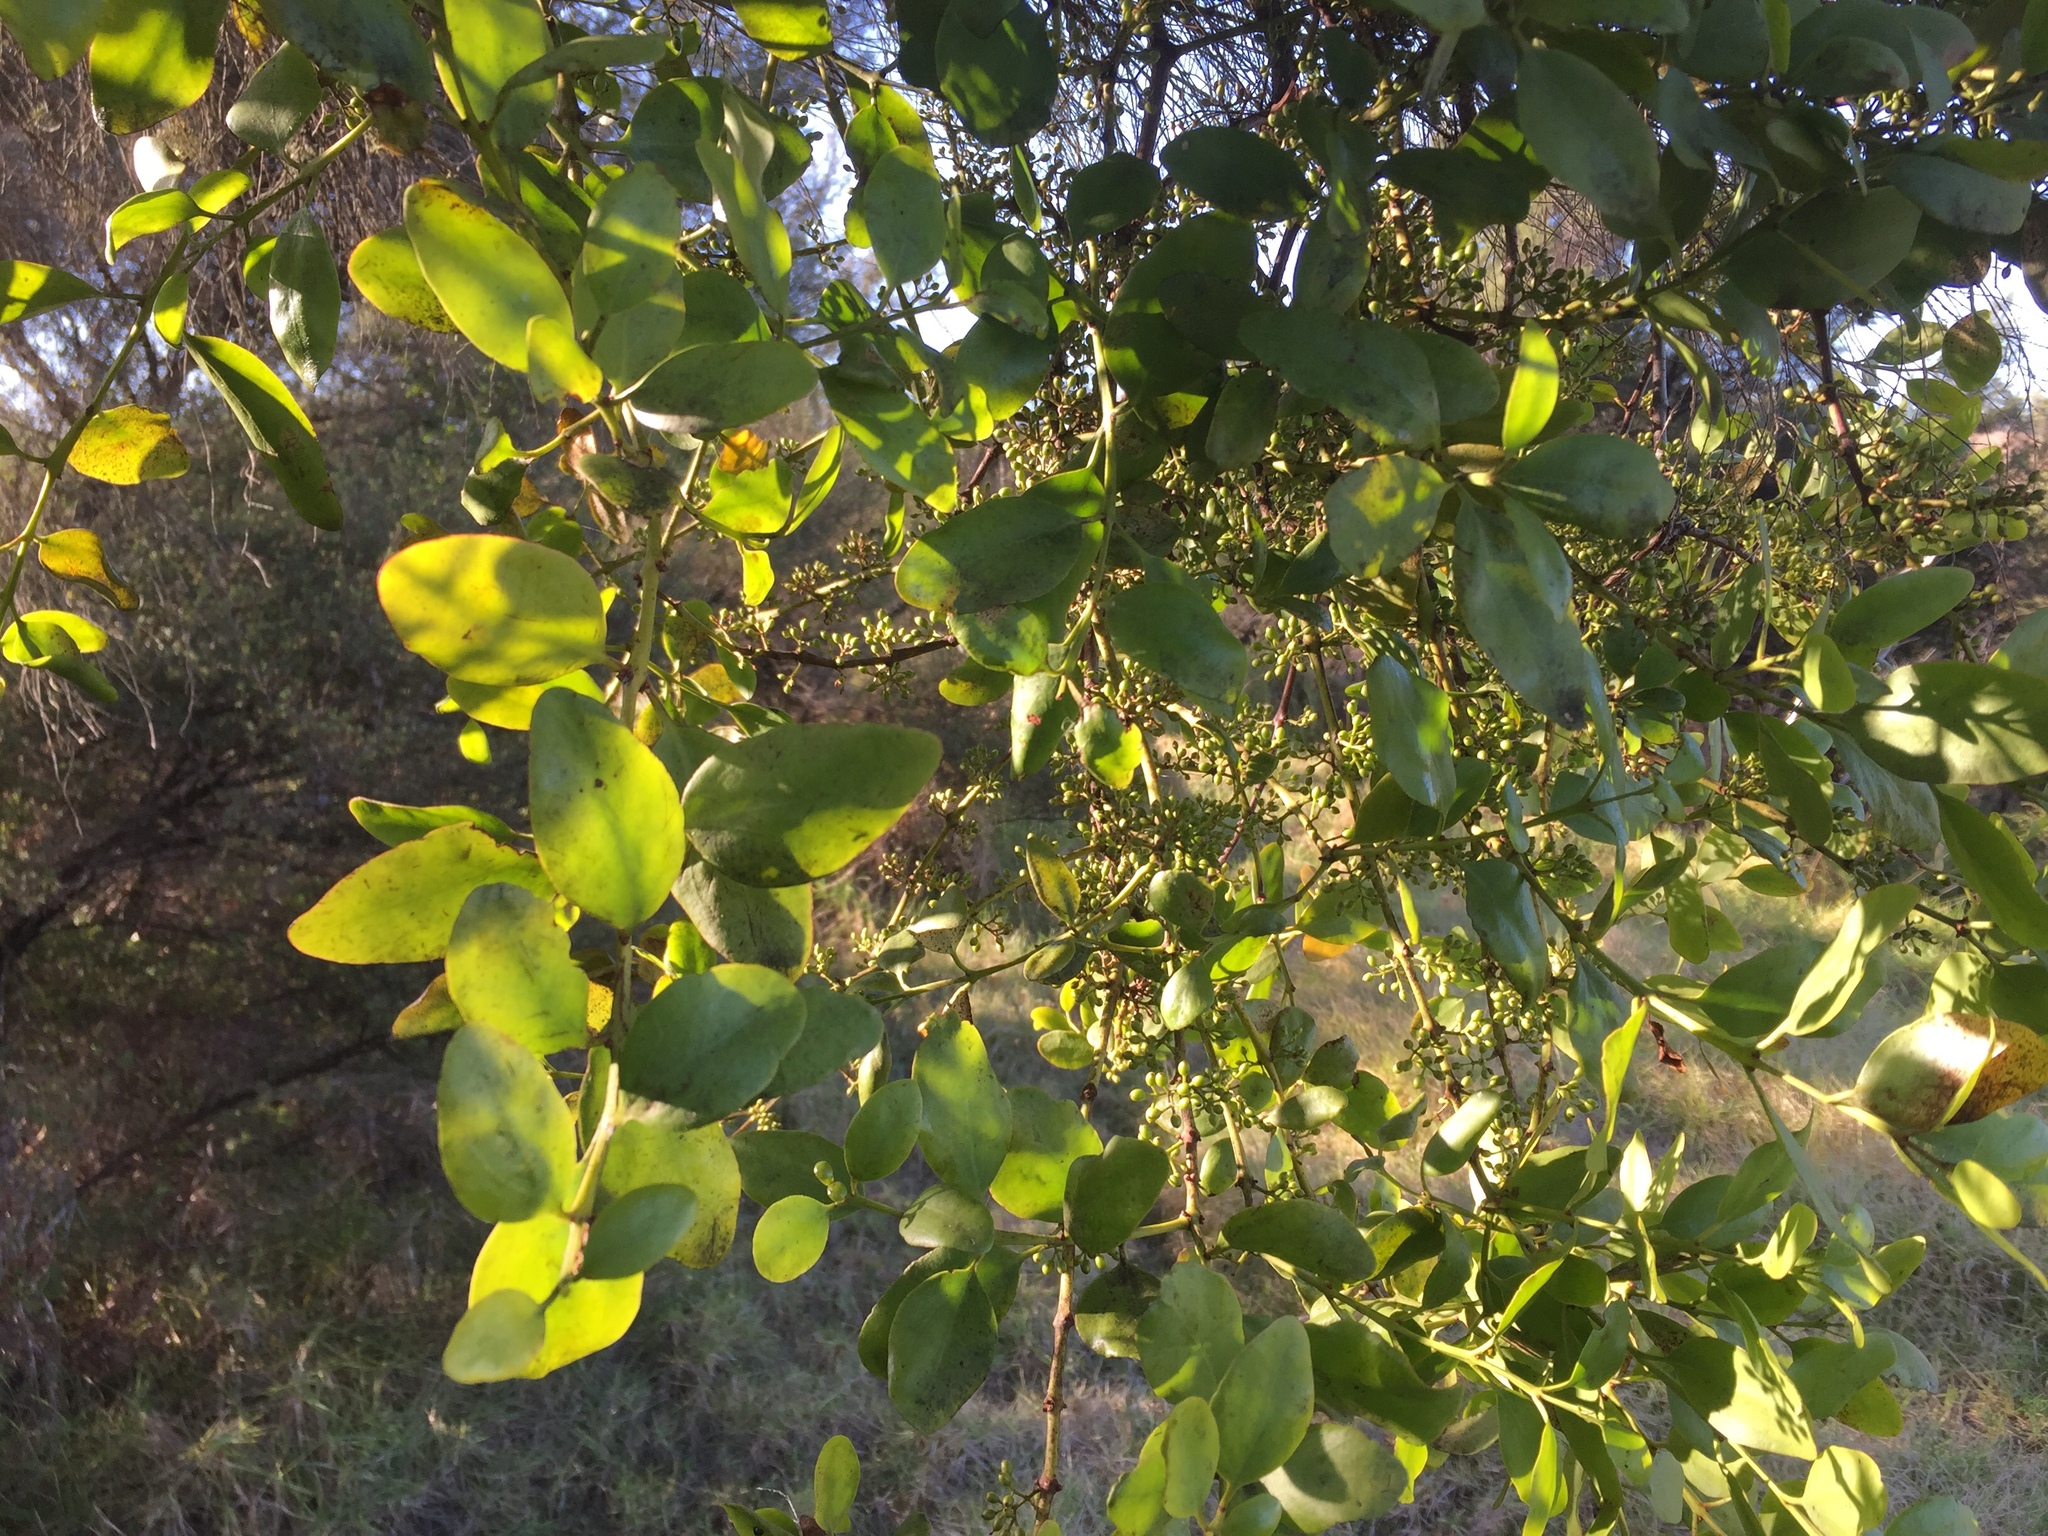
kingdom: Plantae
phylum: Tracheophyta
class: Magnoliopsida
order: Santalales
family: Loranthaceae
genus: Ileostylus
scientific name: Ileostylus micranthus
